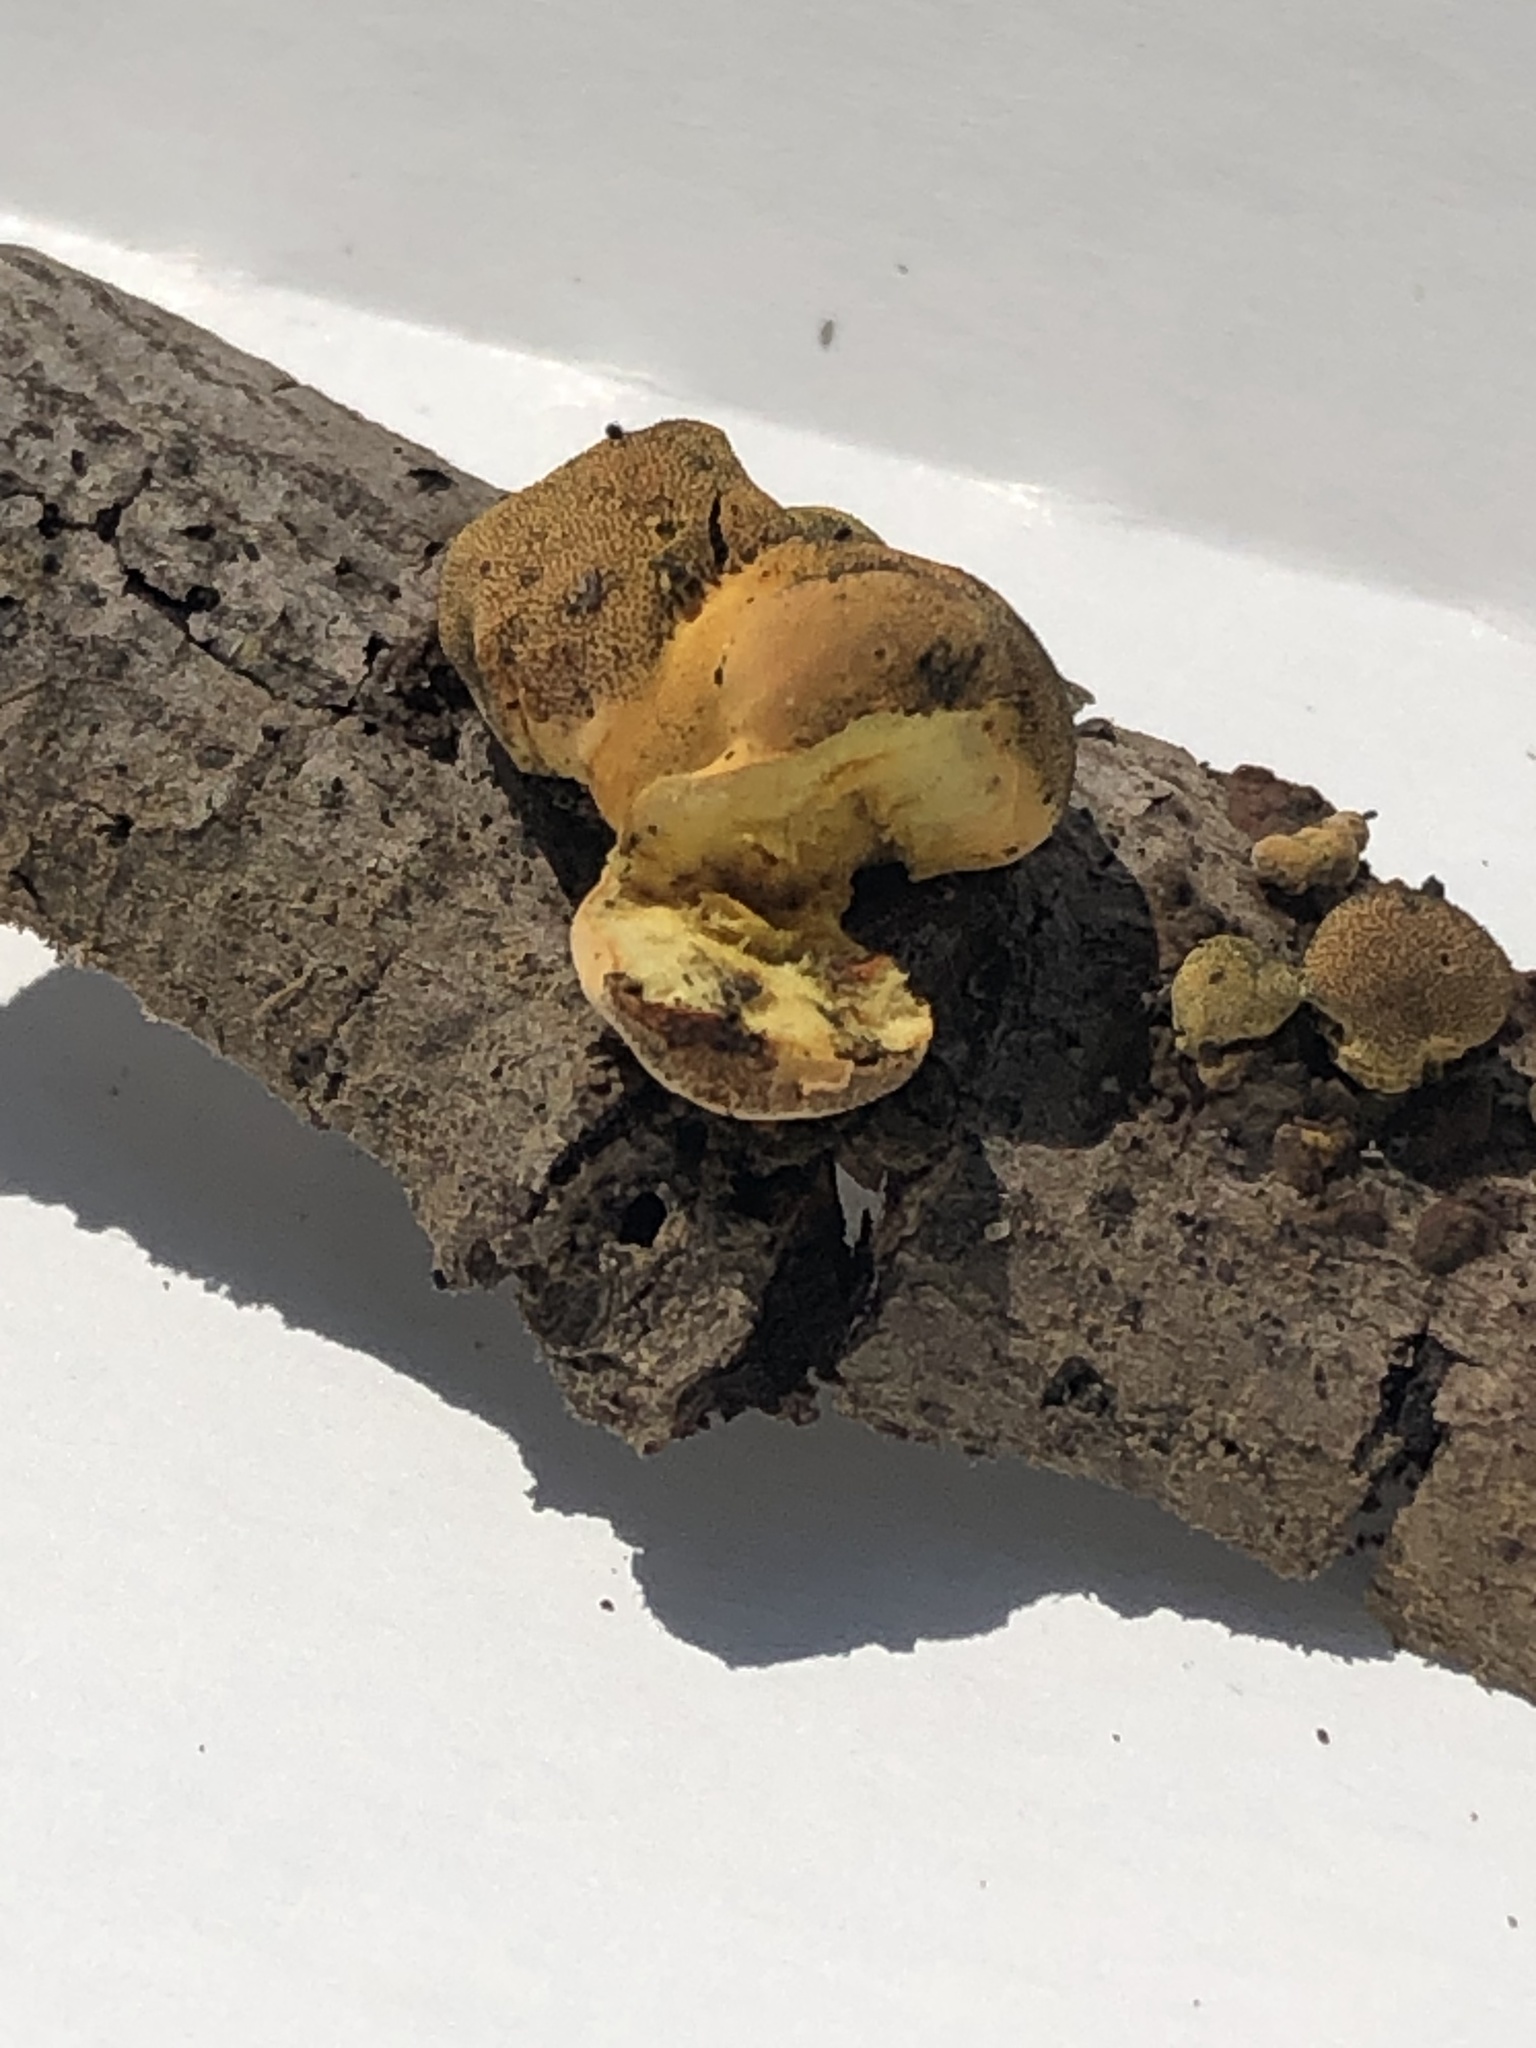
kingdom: Fungi
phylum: Ascomycota
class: Sordariomycetes
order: Xylariales
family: Hypoxylaceae
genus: Thuemenella
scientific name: Thuemenella cubispora
